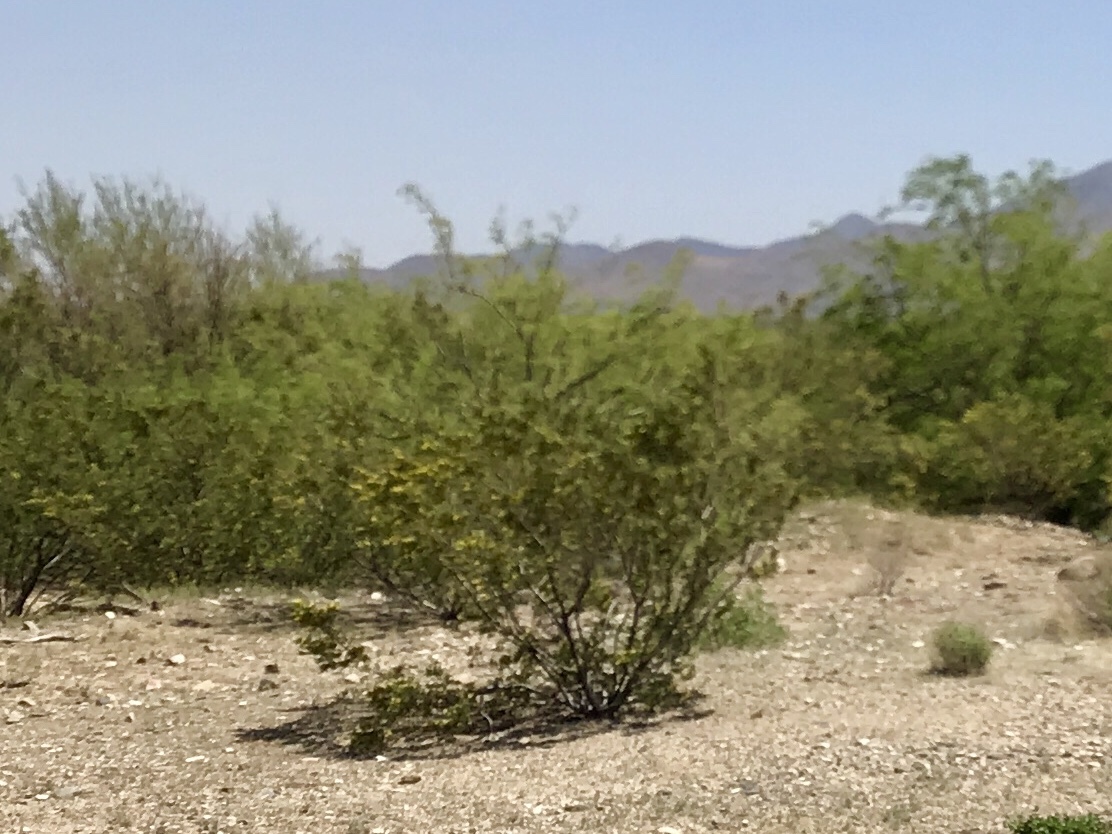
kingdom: Plantae
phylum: Tracheophyta
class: Magnoliopsida
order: Zygophyllales
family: Zygophyllaceae
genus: Larrea
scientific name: Larrea tridentata
